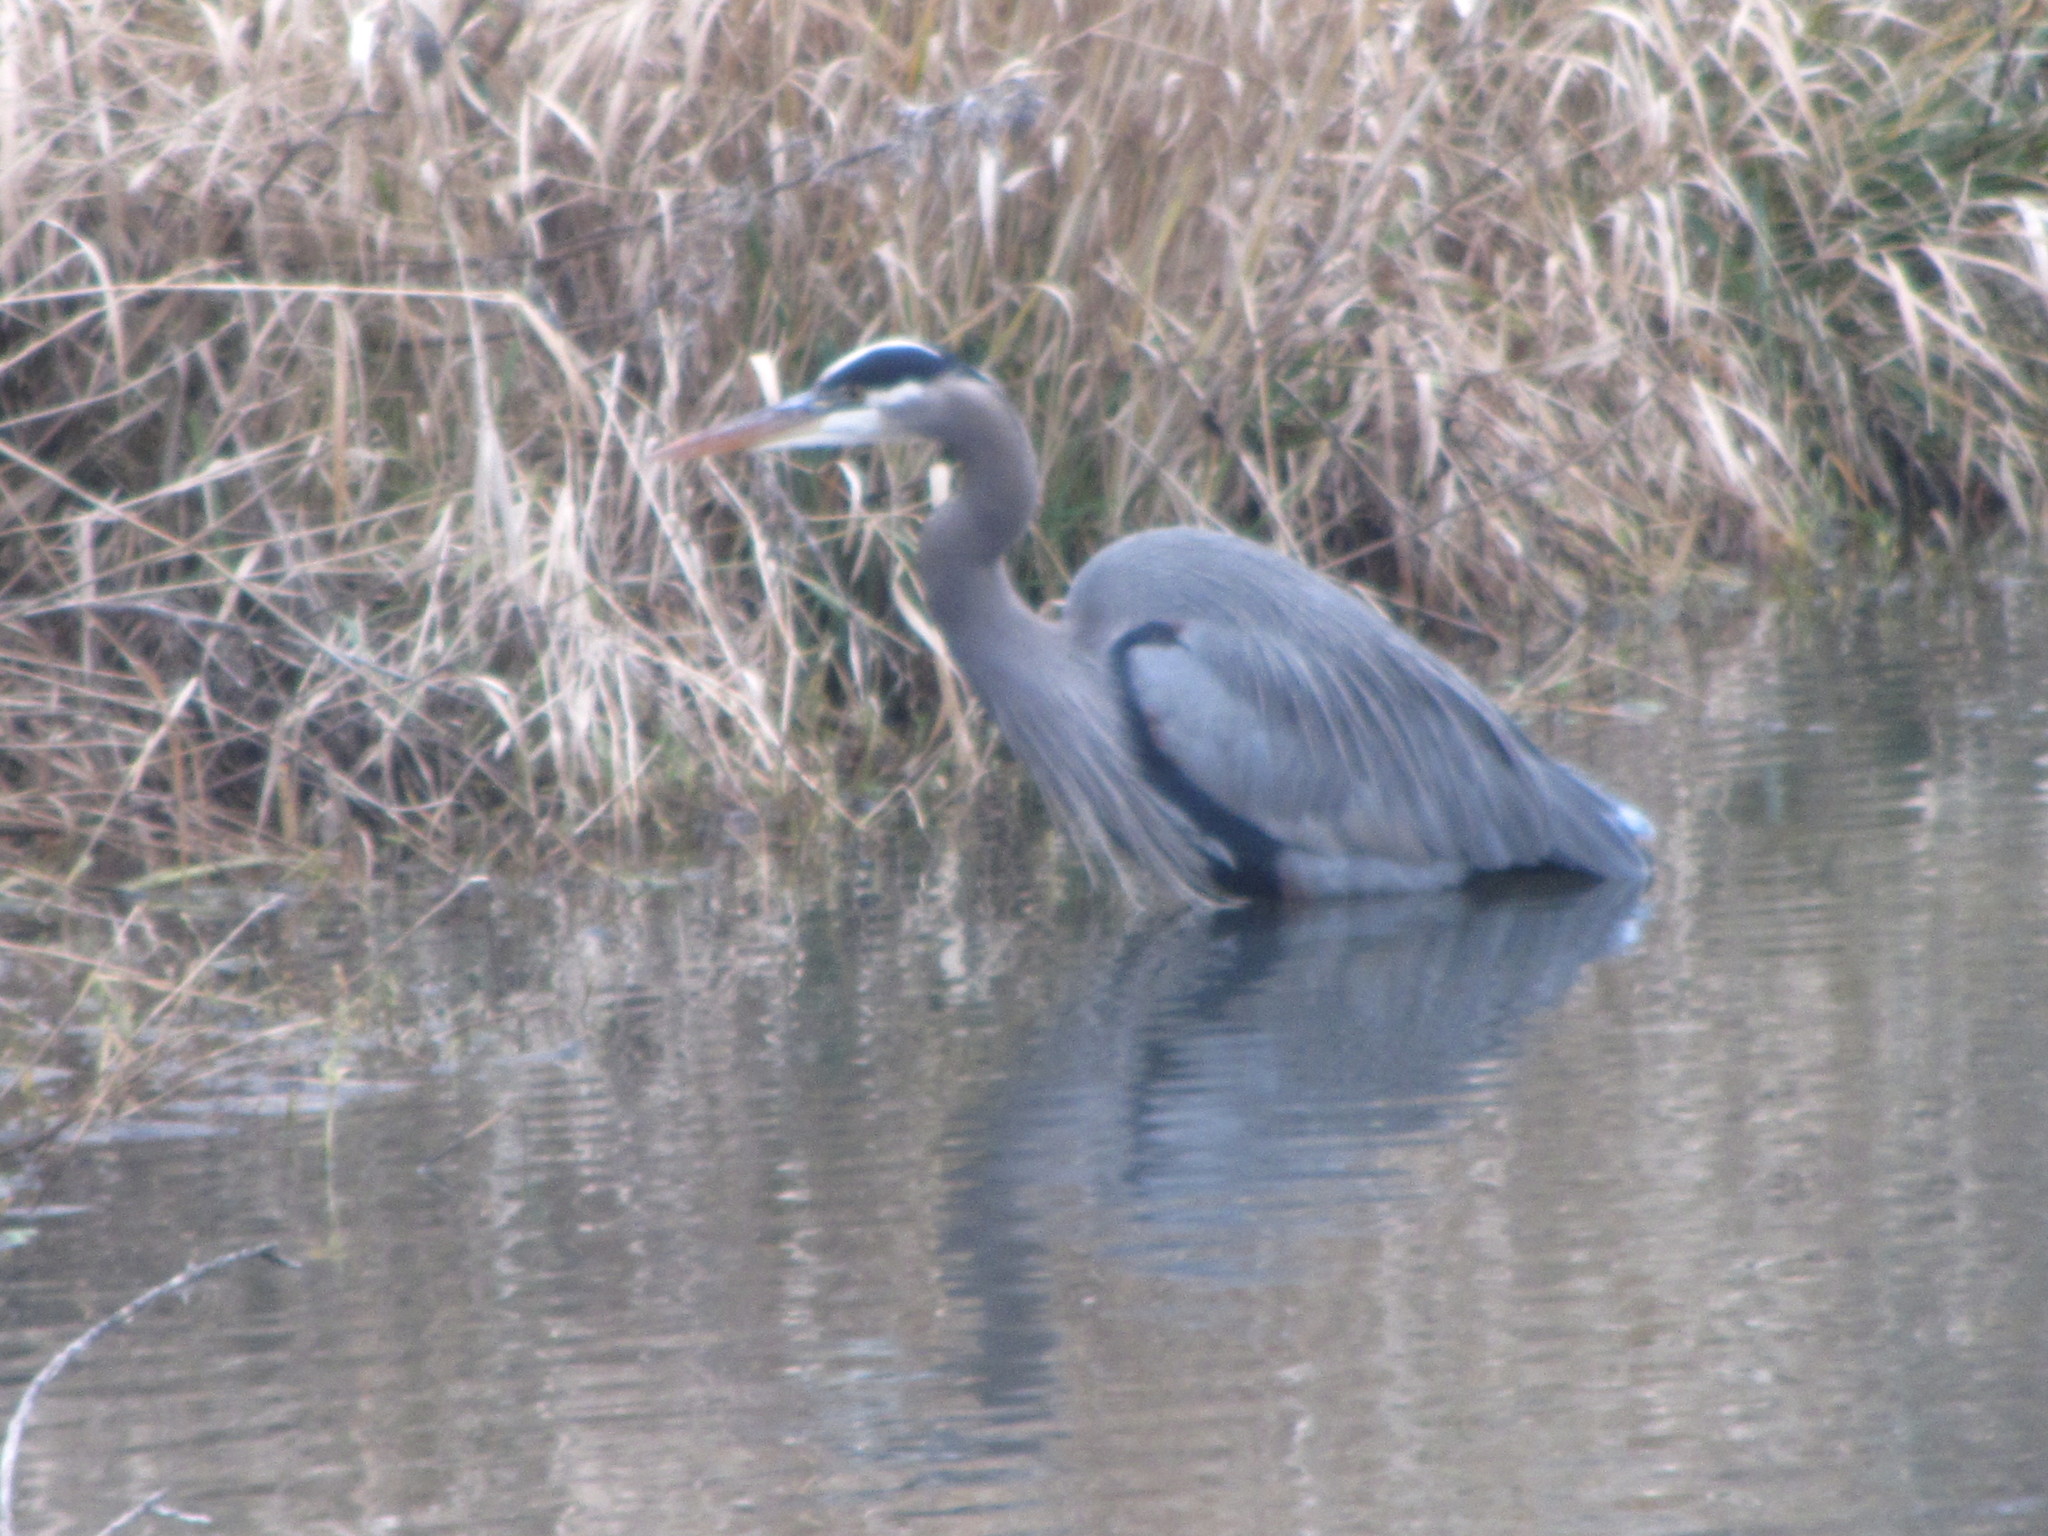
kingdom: Animalia
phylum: Chordata
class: Aves
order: Pelecaniformes
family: Ardeidae
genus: Ardea
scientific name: Ardea herodias
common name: Great blue heron
